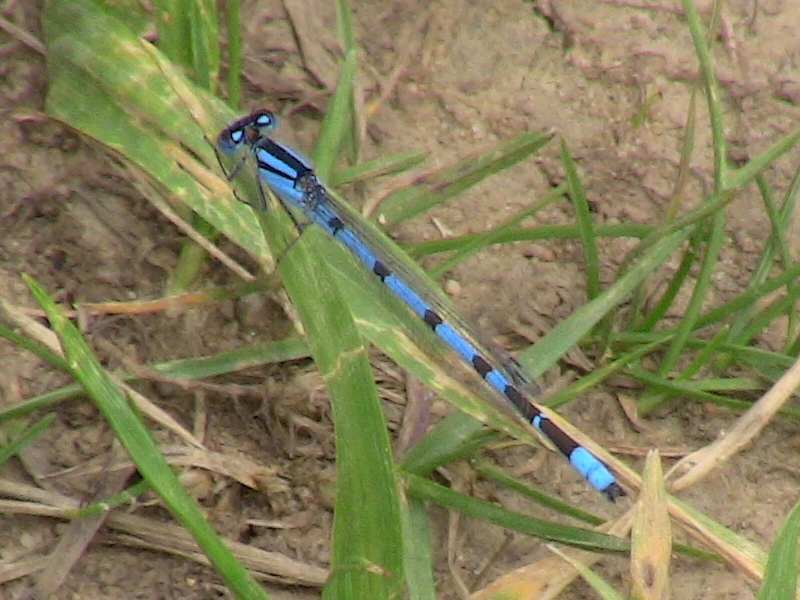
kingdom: Animalia
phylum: Arthropoda
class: Insecta
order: Odonata
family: Coenagrionidae
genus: Enallagma
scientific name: Enallagma civile
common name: Damselfly
